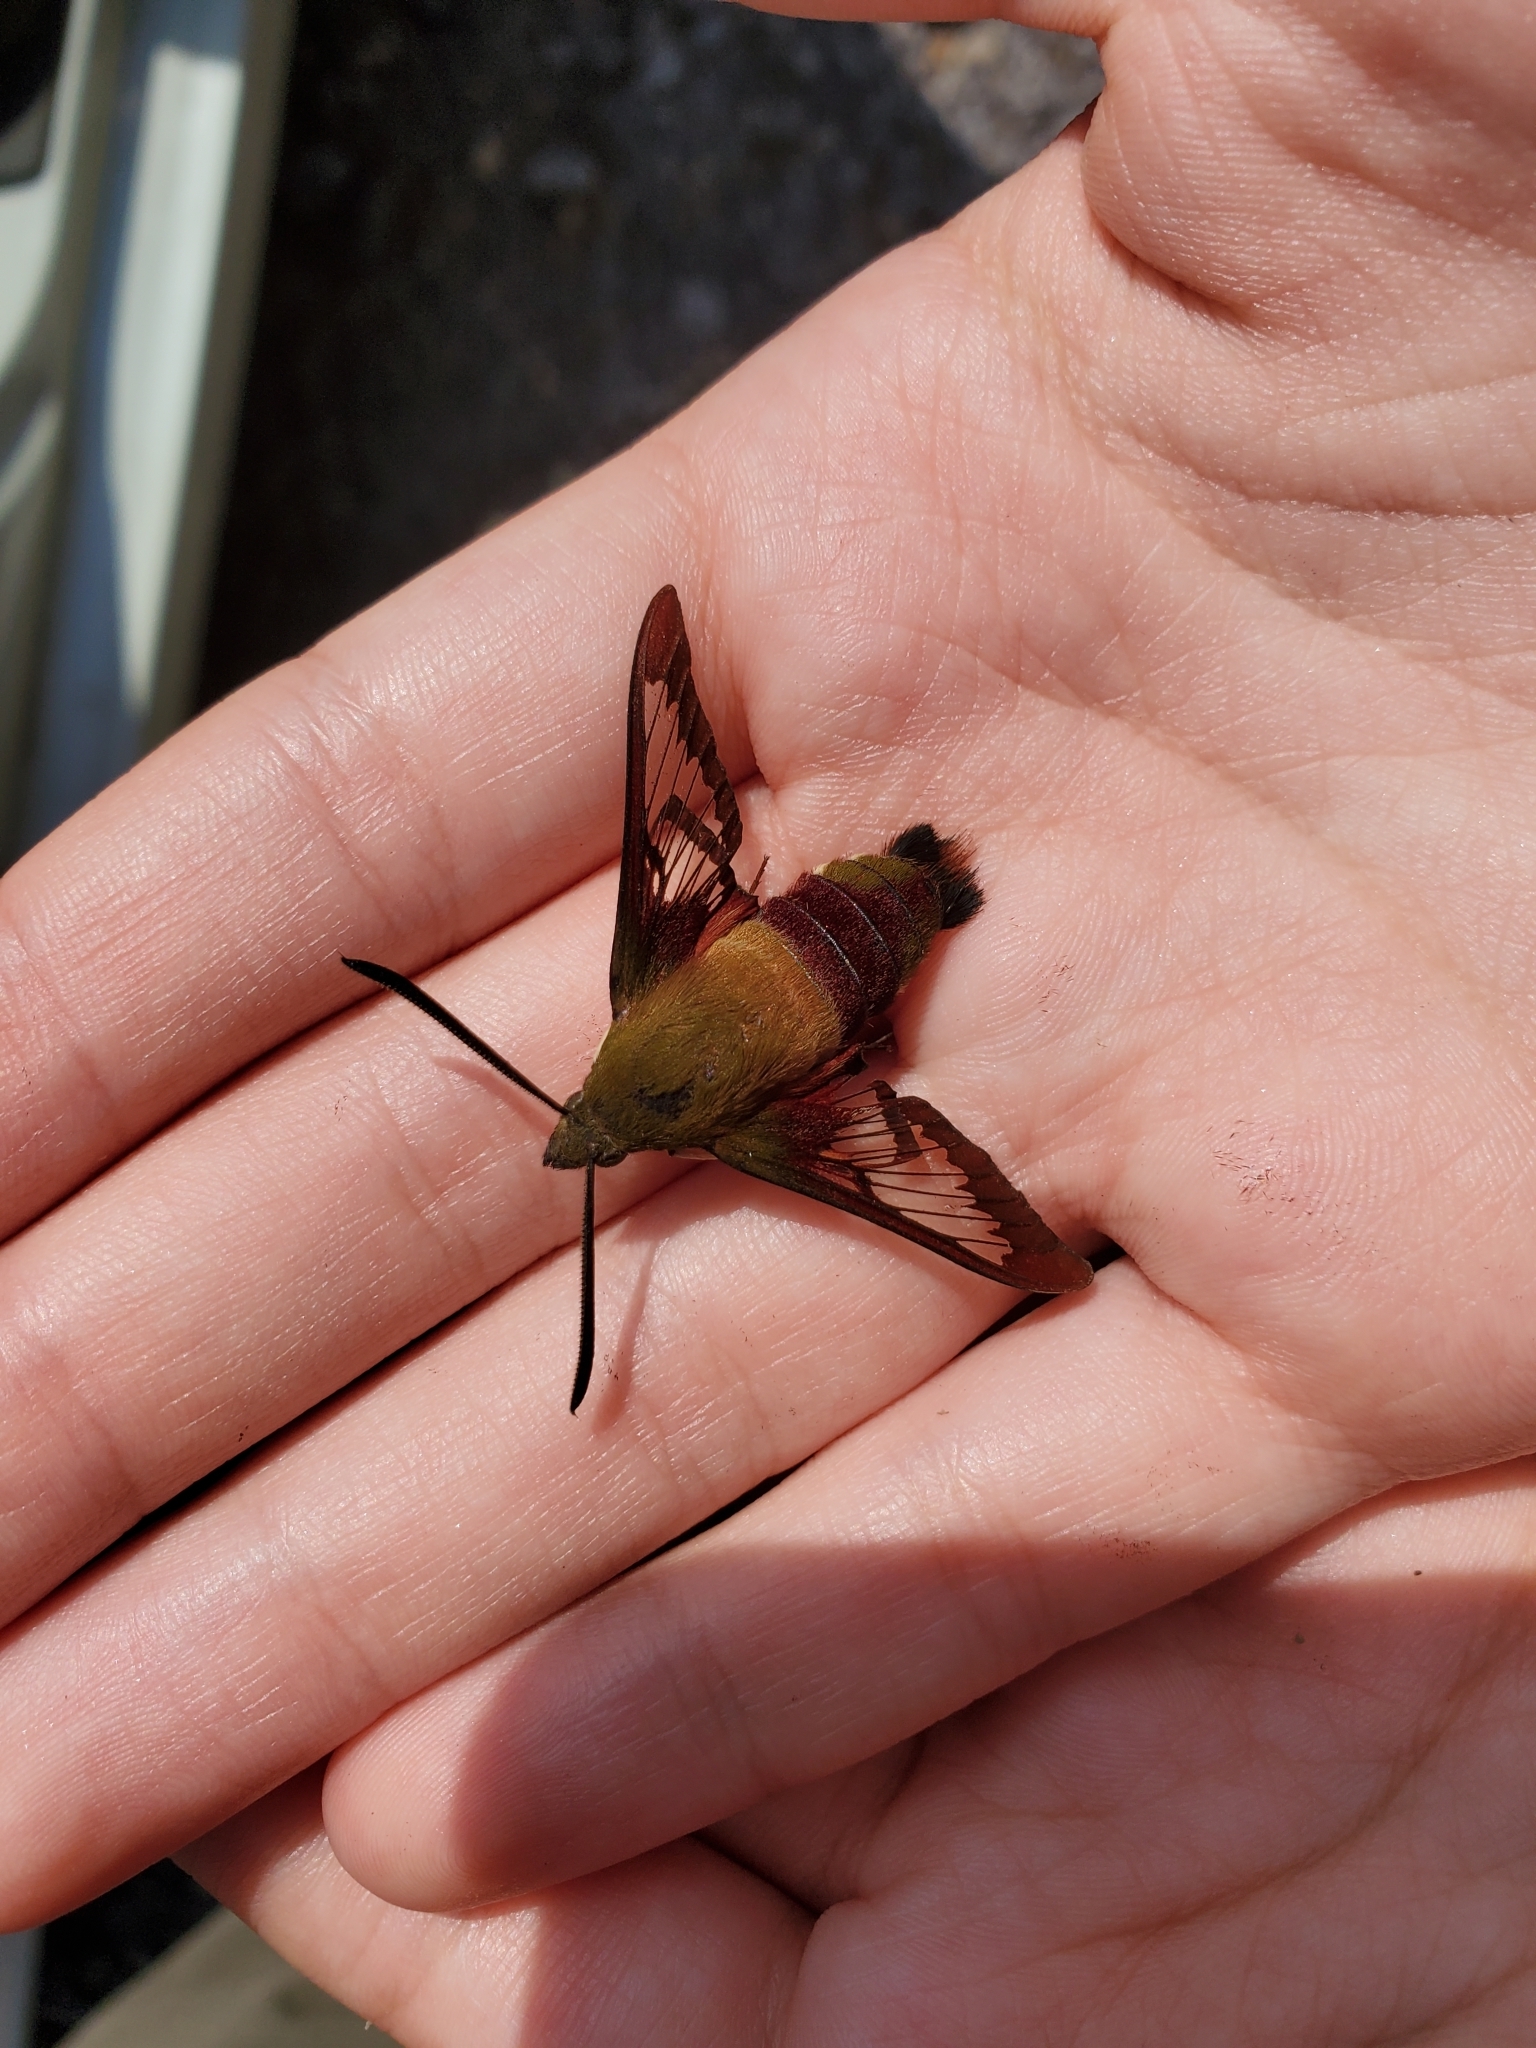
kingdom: Animalia
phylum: Arthropoda
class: Insecta
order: Lepidoptera
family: Sphingidae
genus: Hemaris
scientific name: Hemaris thysbe
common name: Common clear-wing
